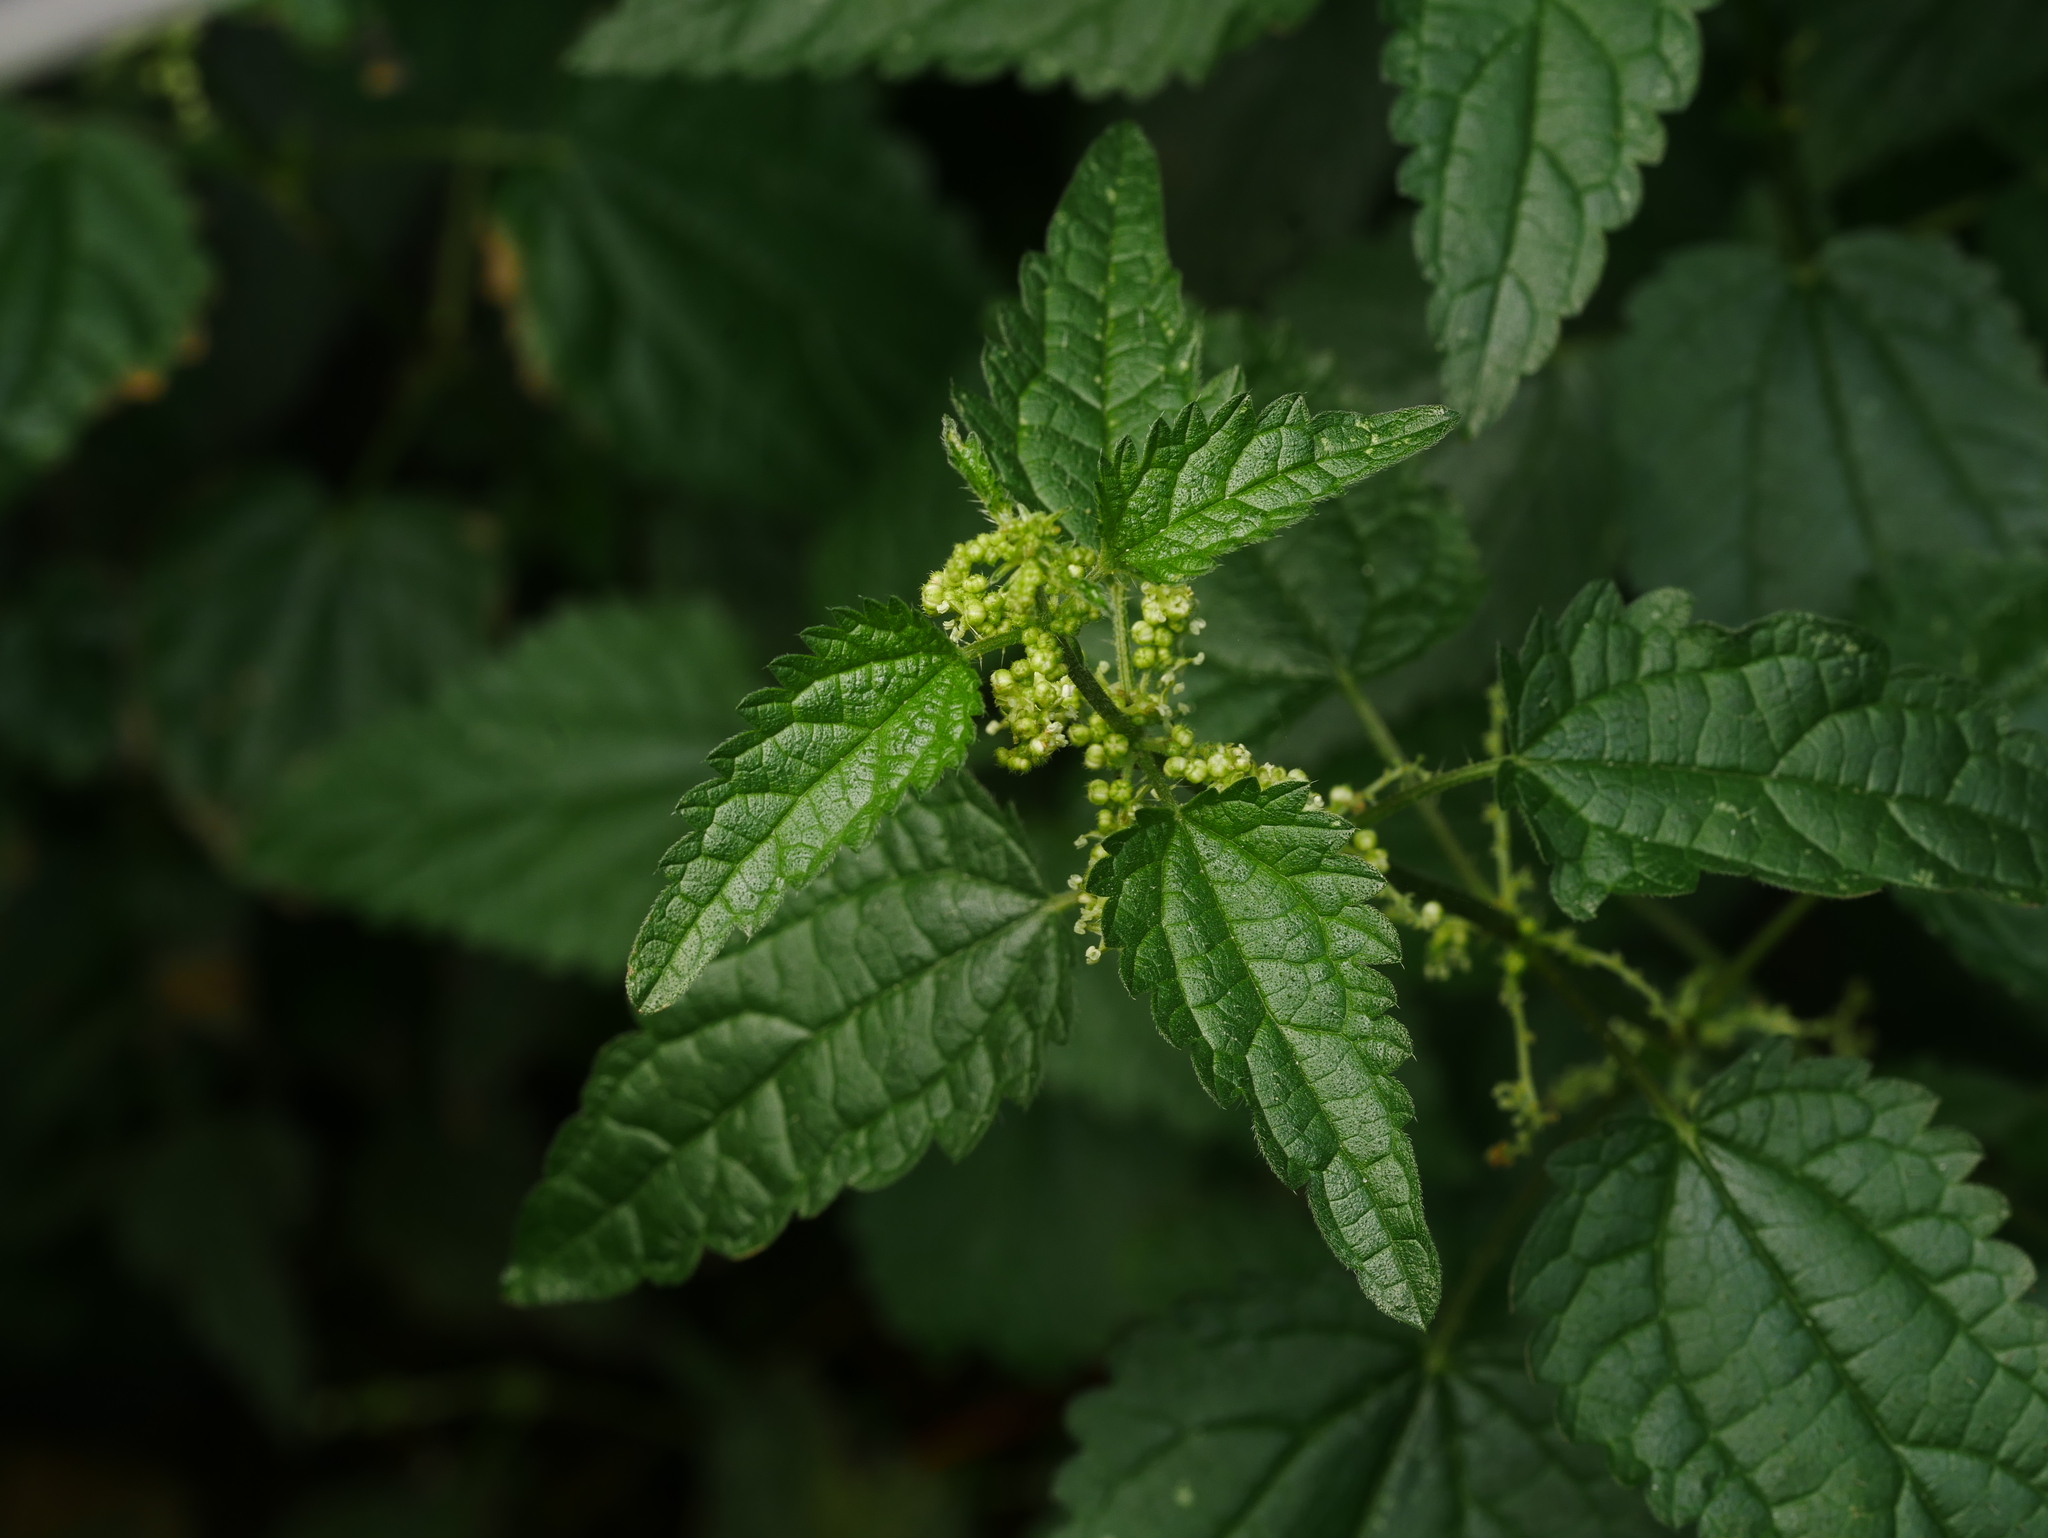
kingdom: Plantae
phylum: Tracheophyta
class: Magnoliopsida
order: Rosales
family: Urticaceae
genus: Urtica
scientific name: Urtica dioica
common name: Common nettle
